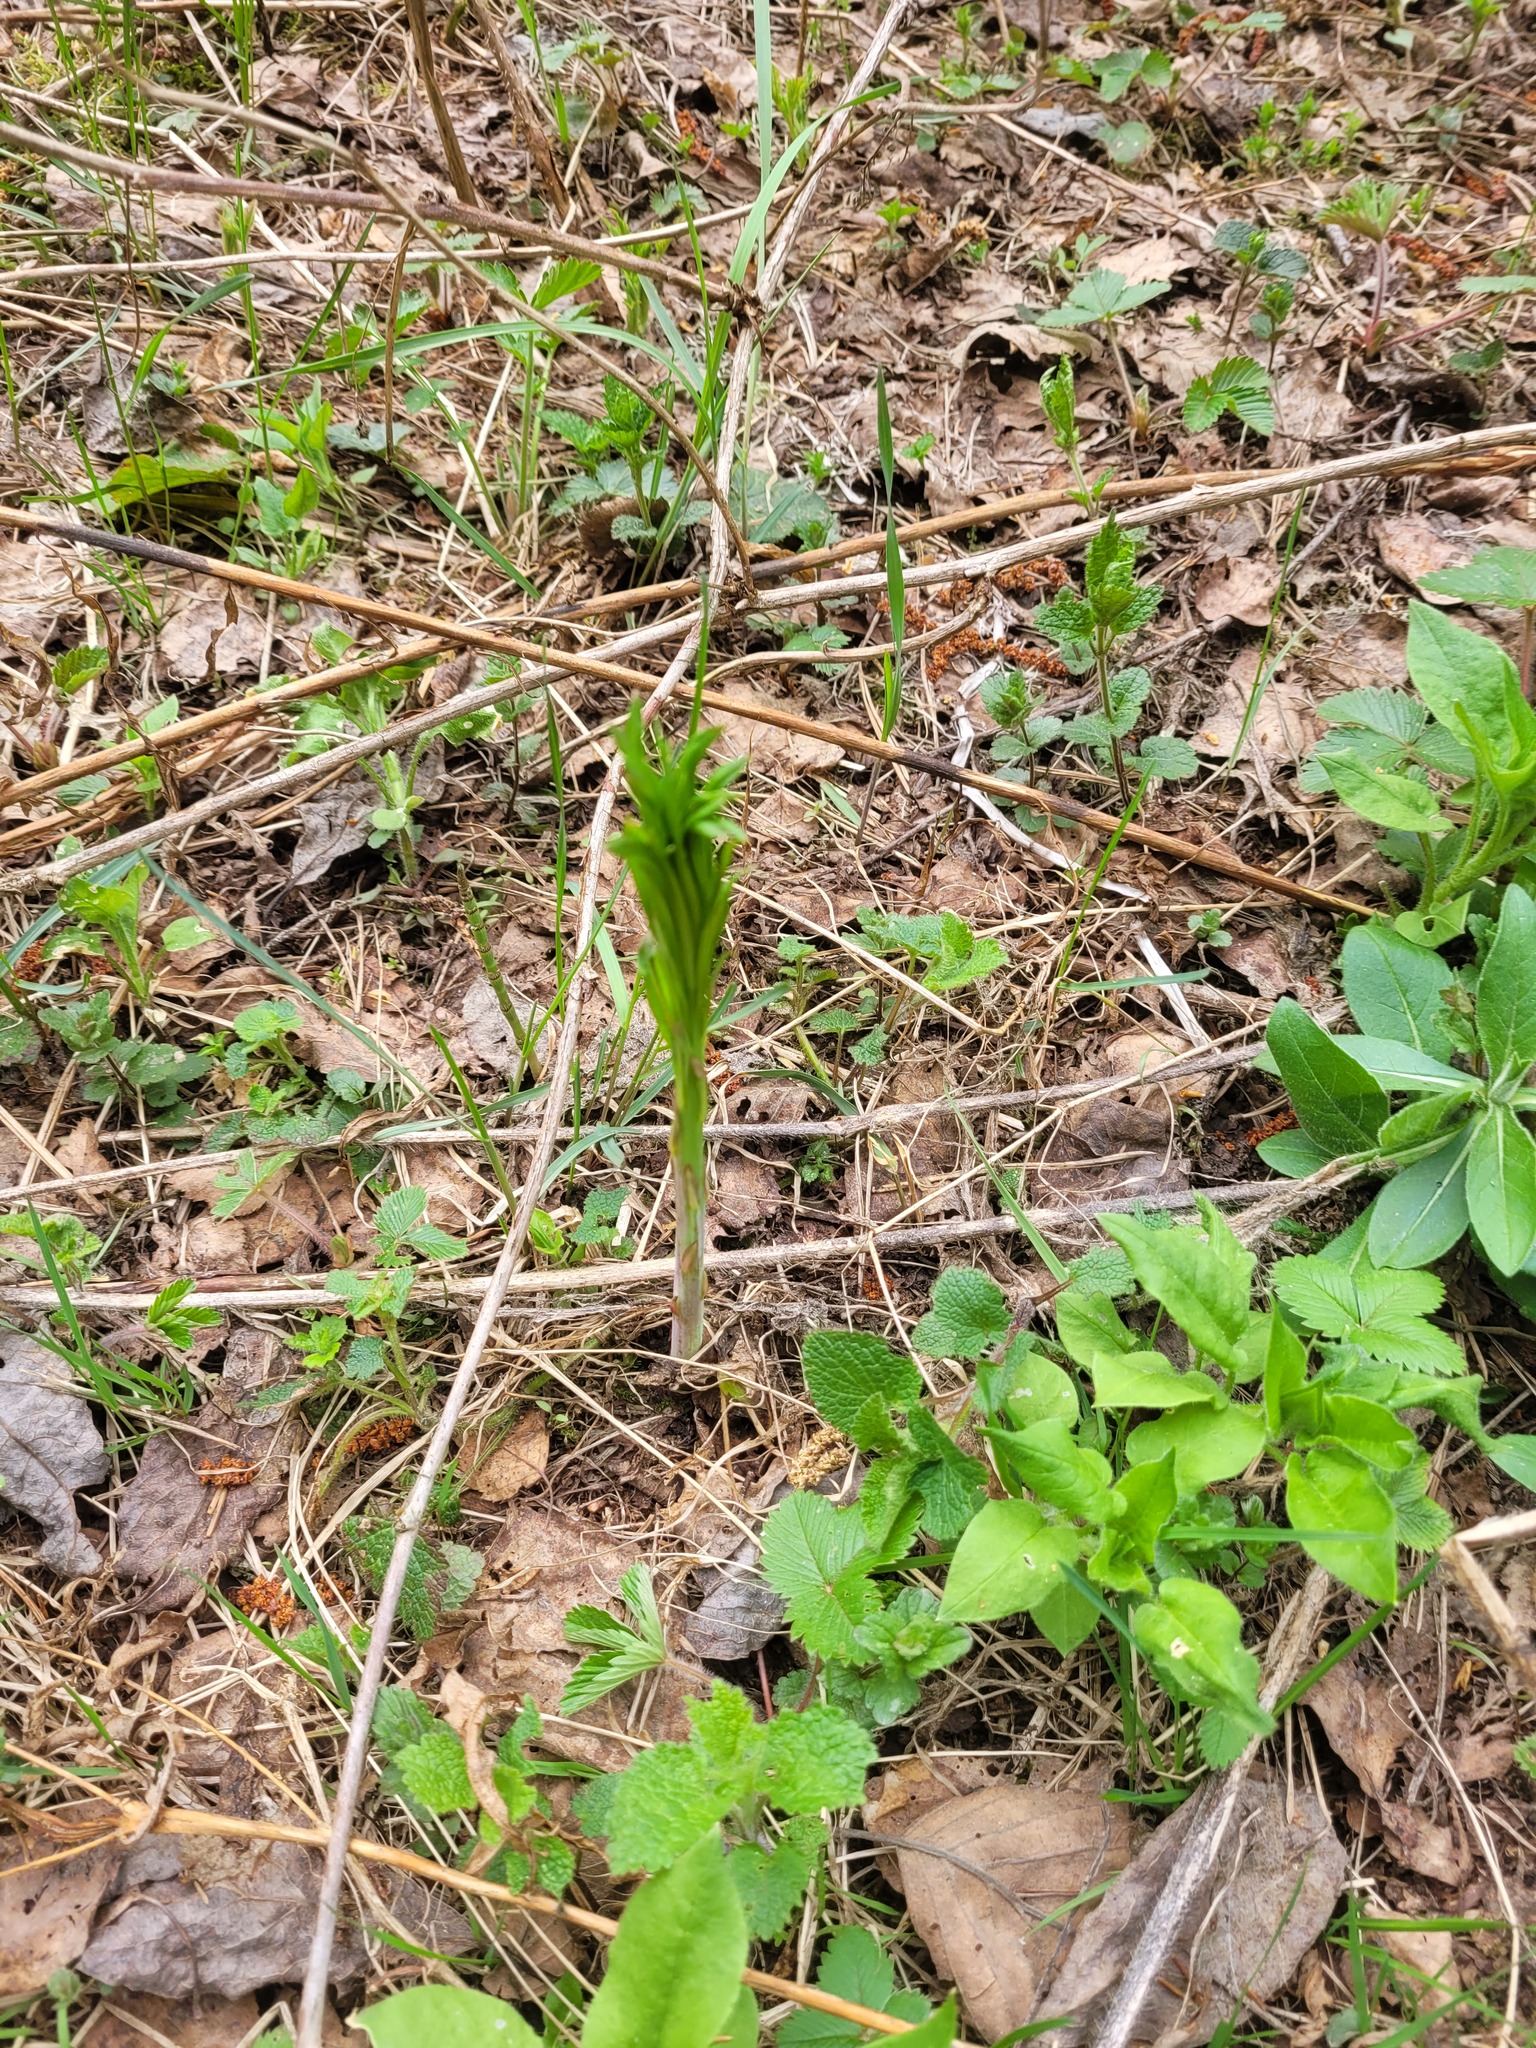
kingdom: Plantae
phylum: Tracheophyta
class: Magnoliopsida
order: Myrtales
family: Onagraceae
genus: Chamaenerion
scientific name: Chamaenerion angustifolium
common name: Fireweed
